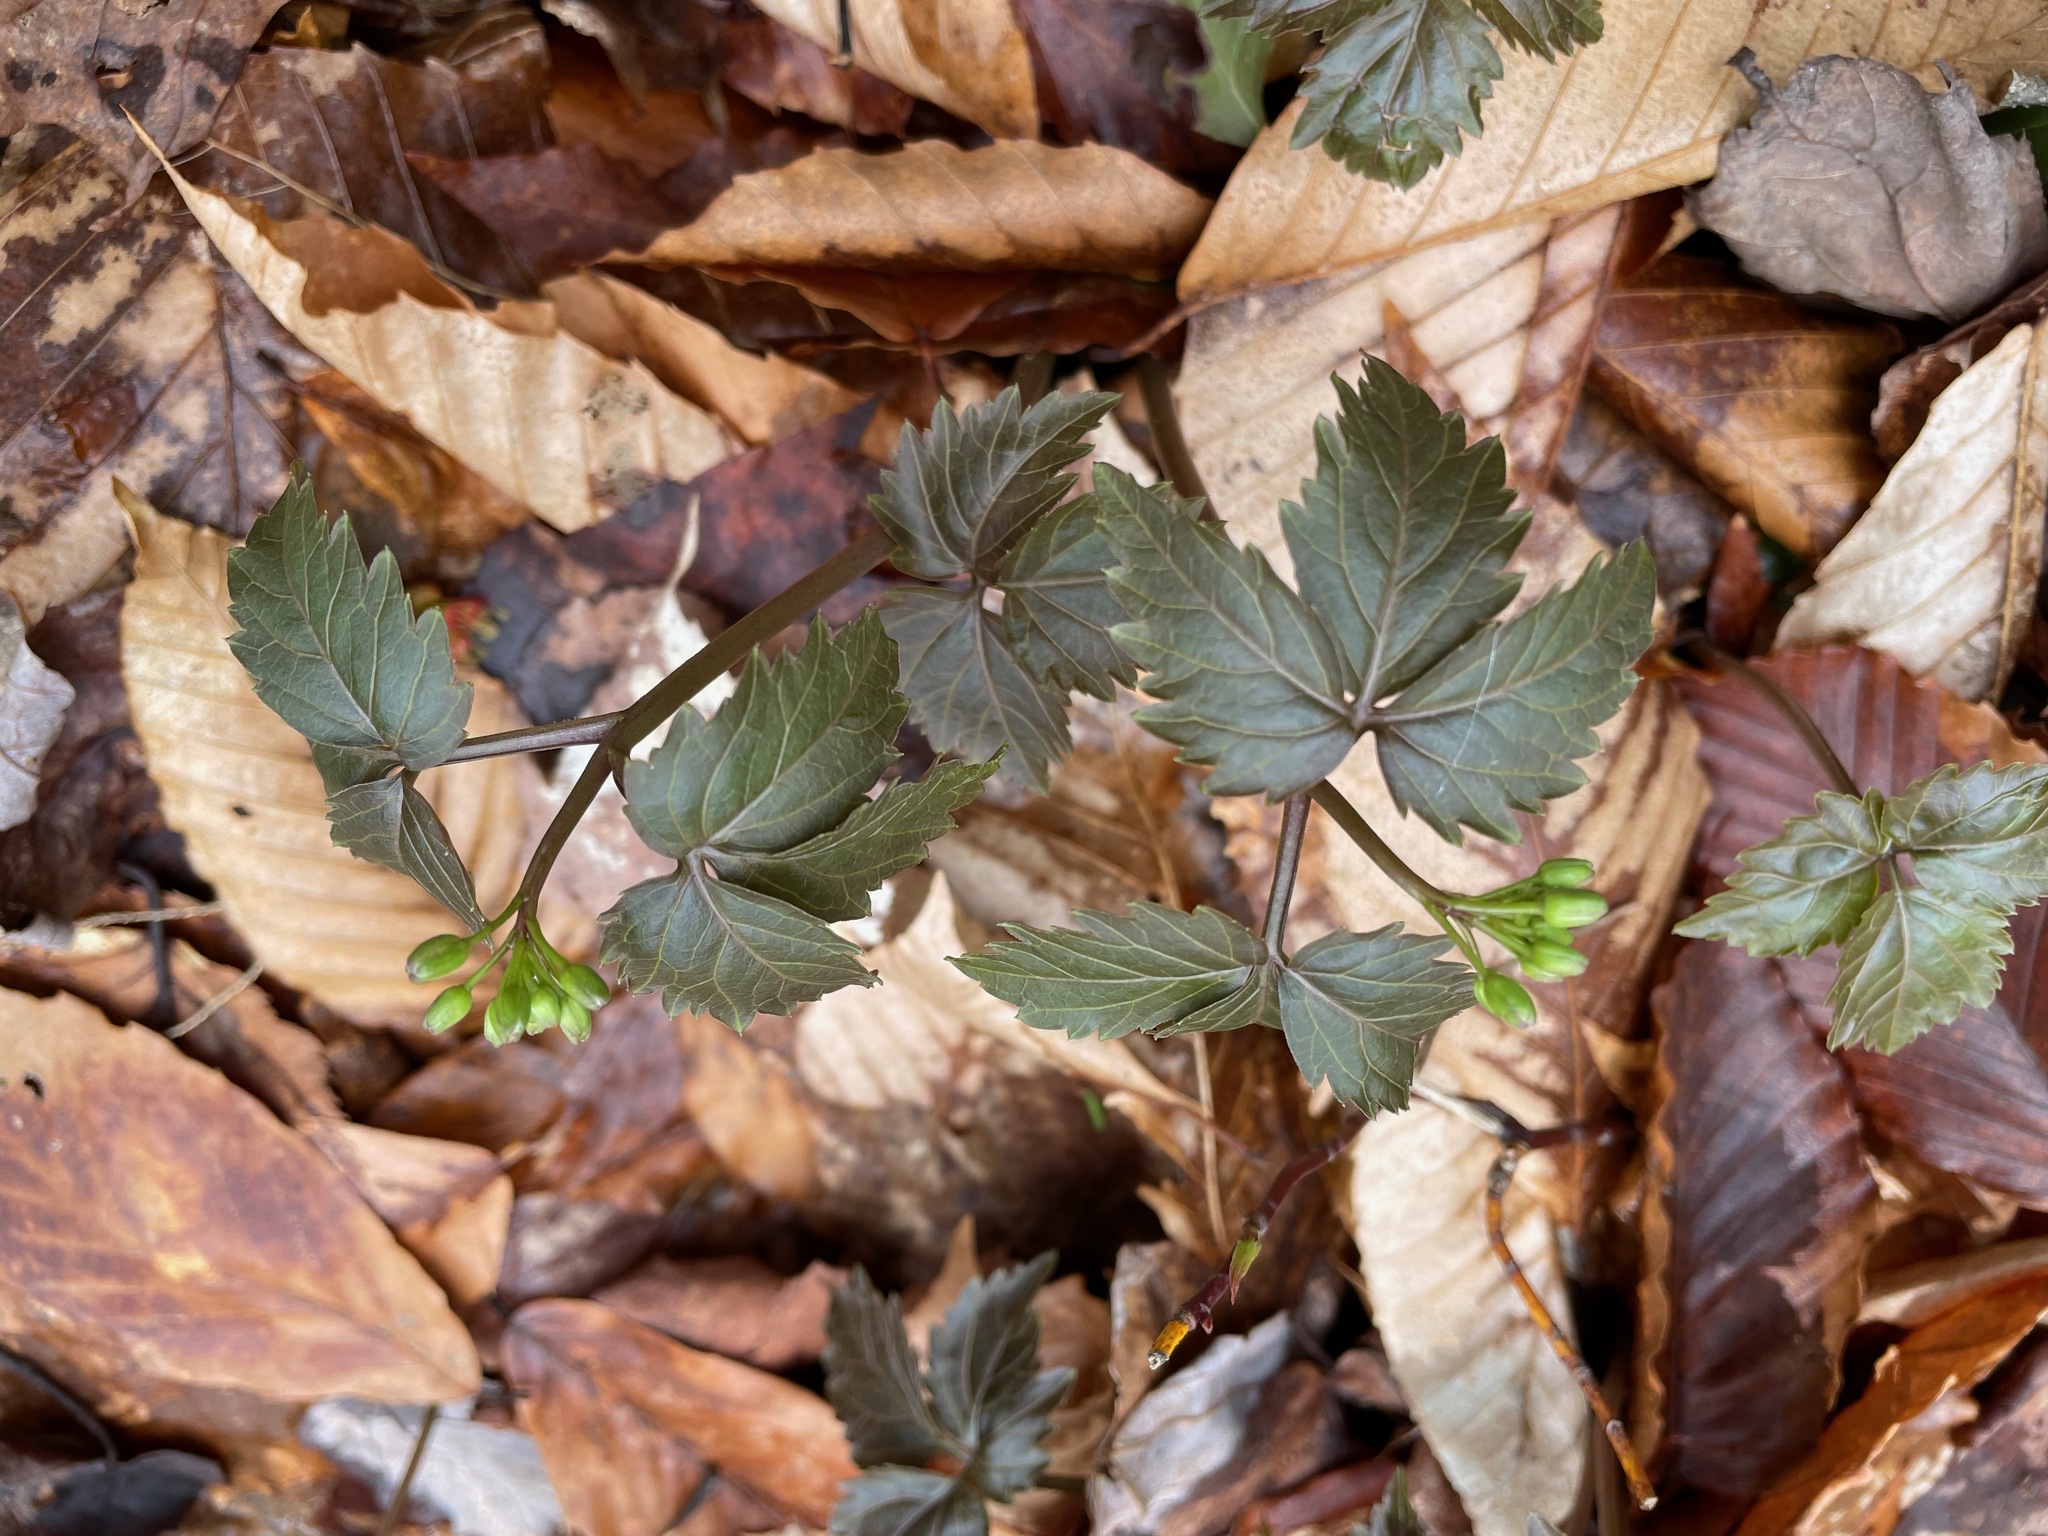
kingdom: Plantae
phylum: Tracheophyta
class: Magnoliopsida
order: Brassicales
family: Brassicaceae
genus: Cardamine
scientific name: Cardamine diphylla
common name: Broad-leaved toothwort
